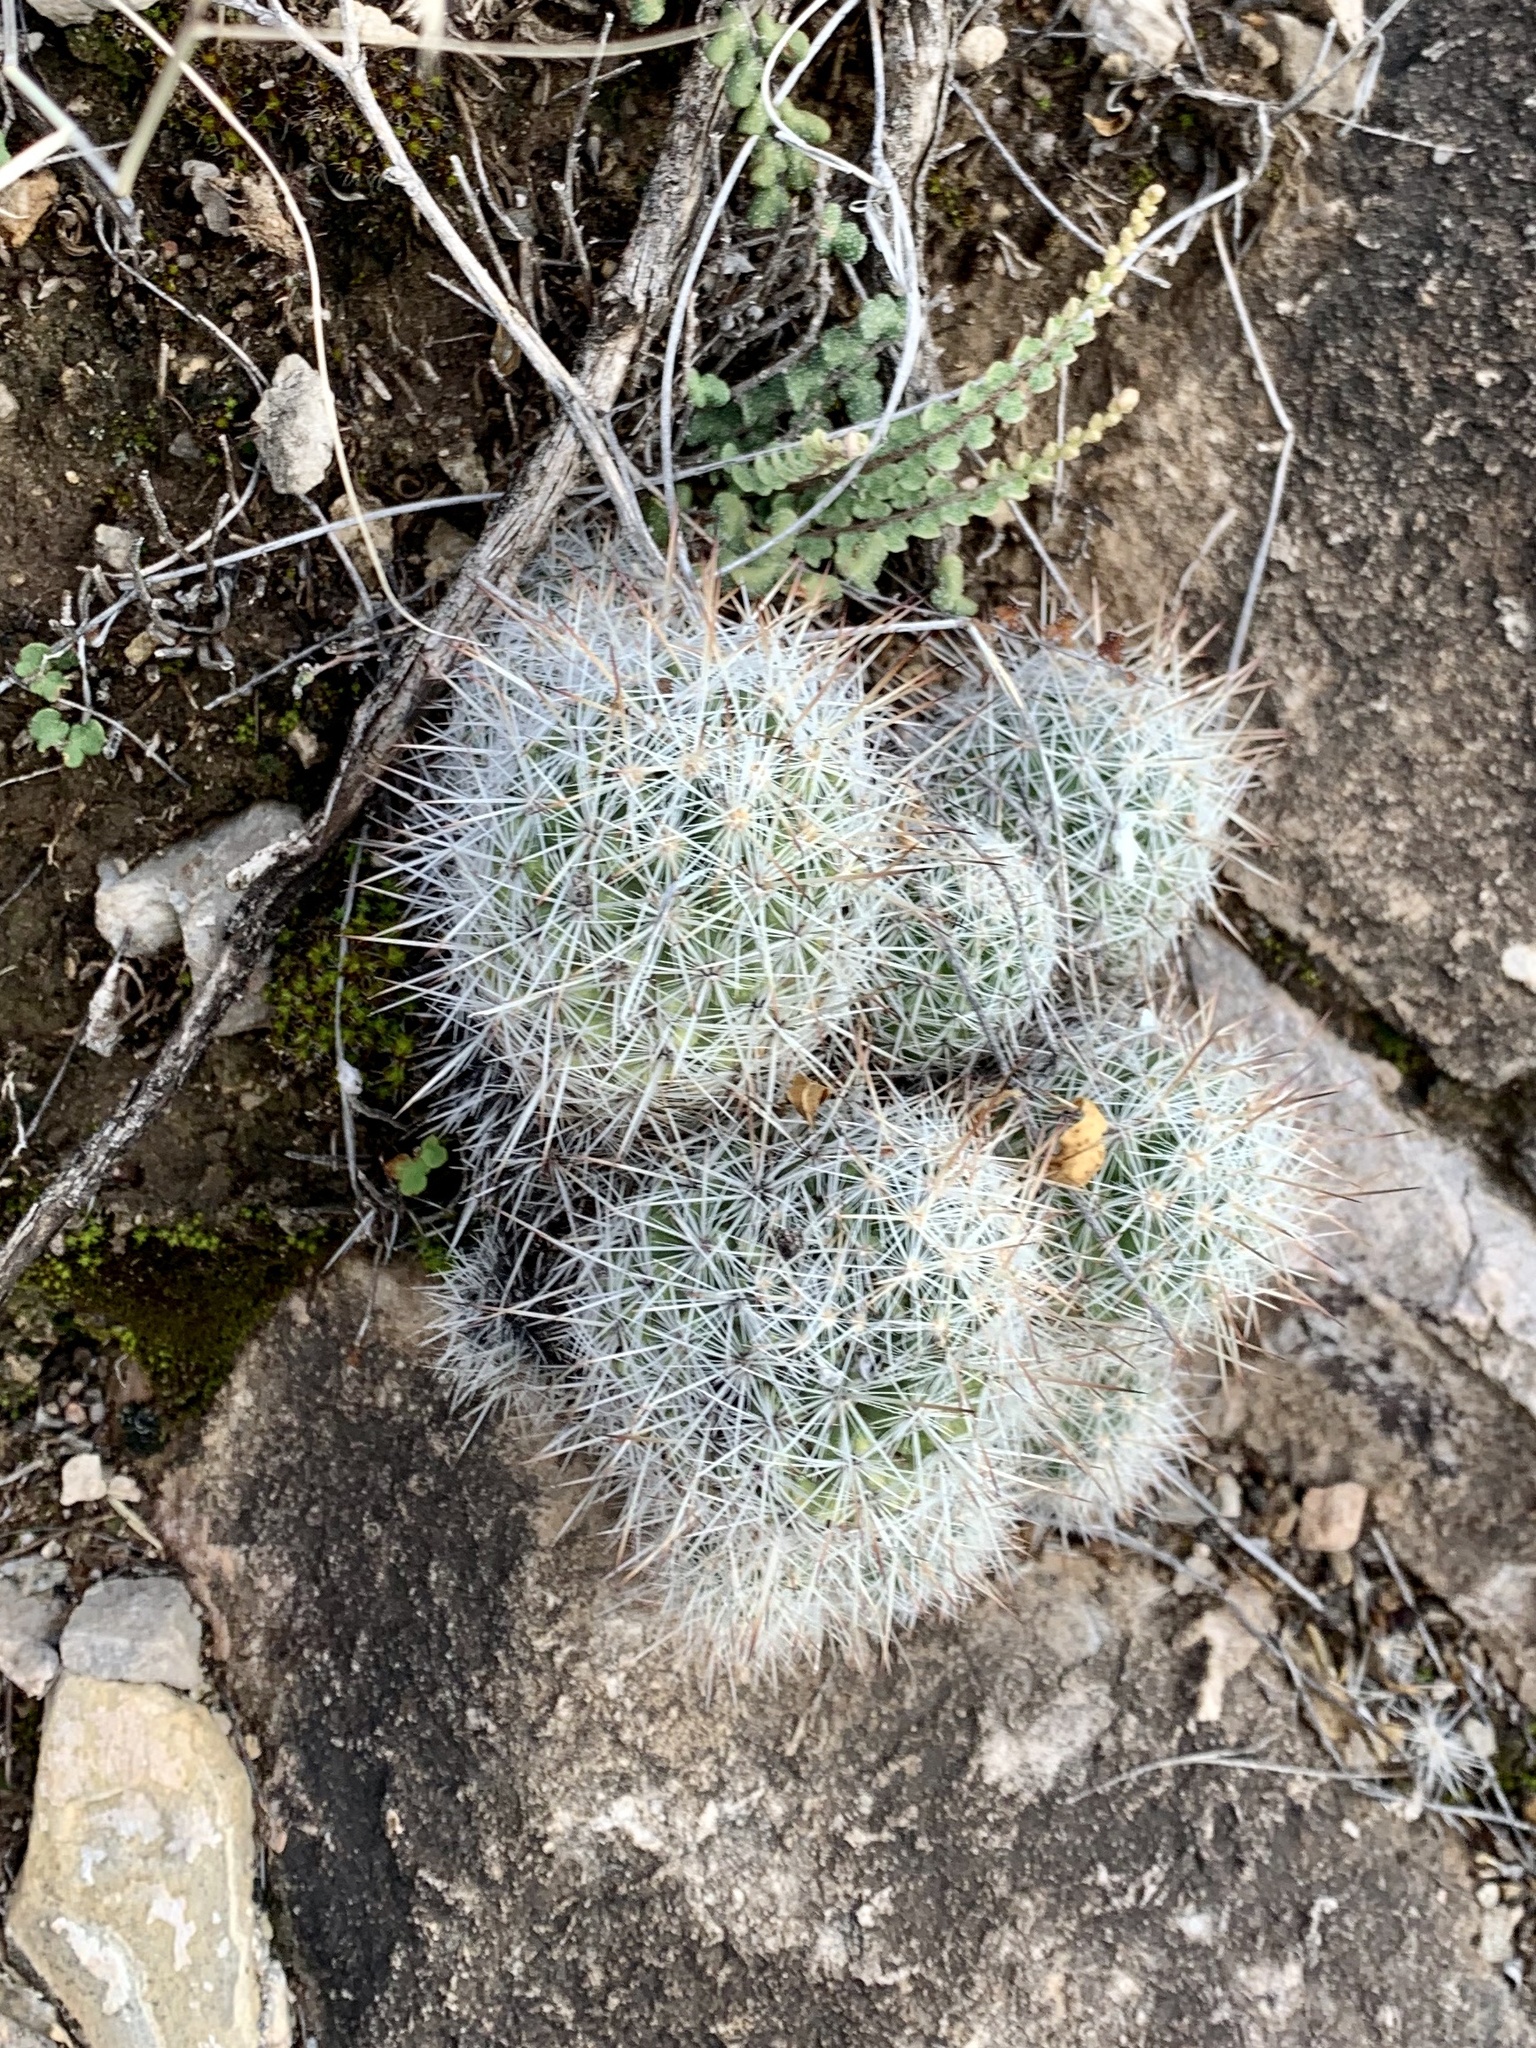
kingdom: Plantae
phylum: Tracheophyta
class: Magnoliopsida
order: Caryophyllales
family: Cactaceae
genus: Pelecyphora
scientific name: Pelecyphora sneedii
